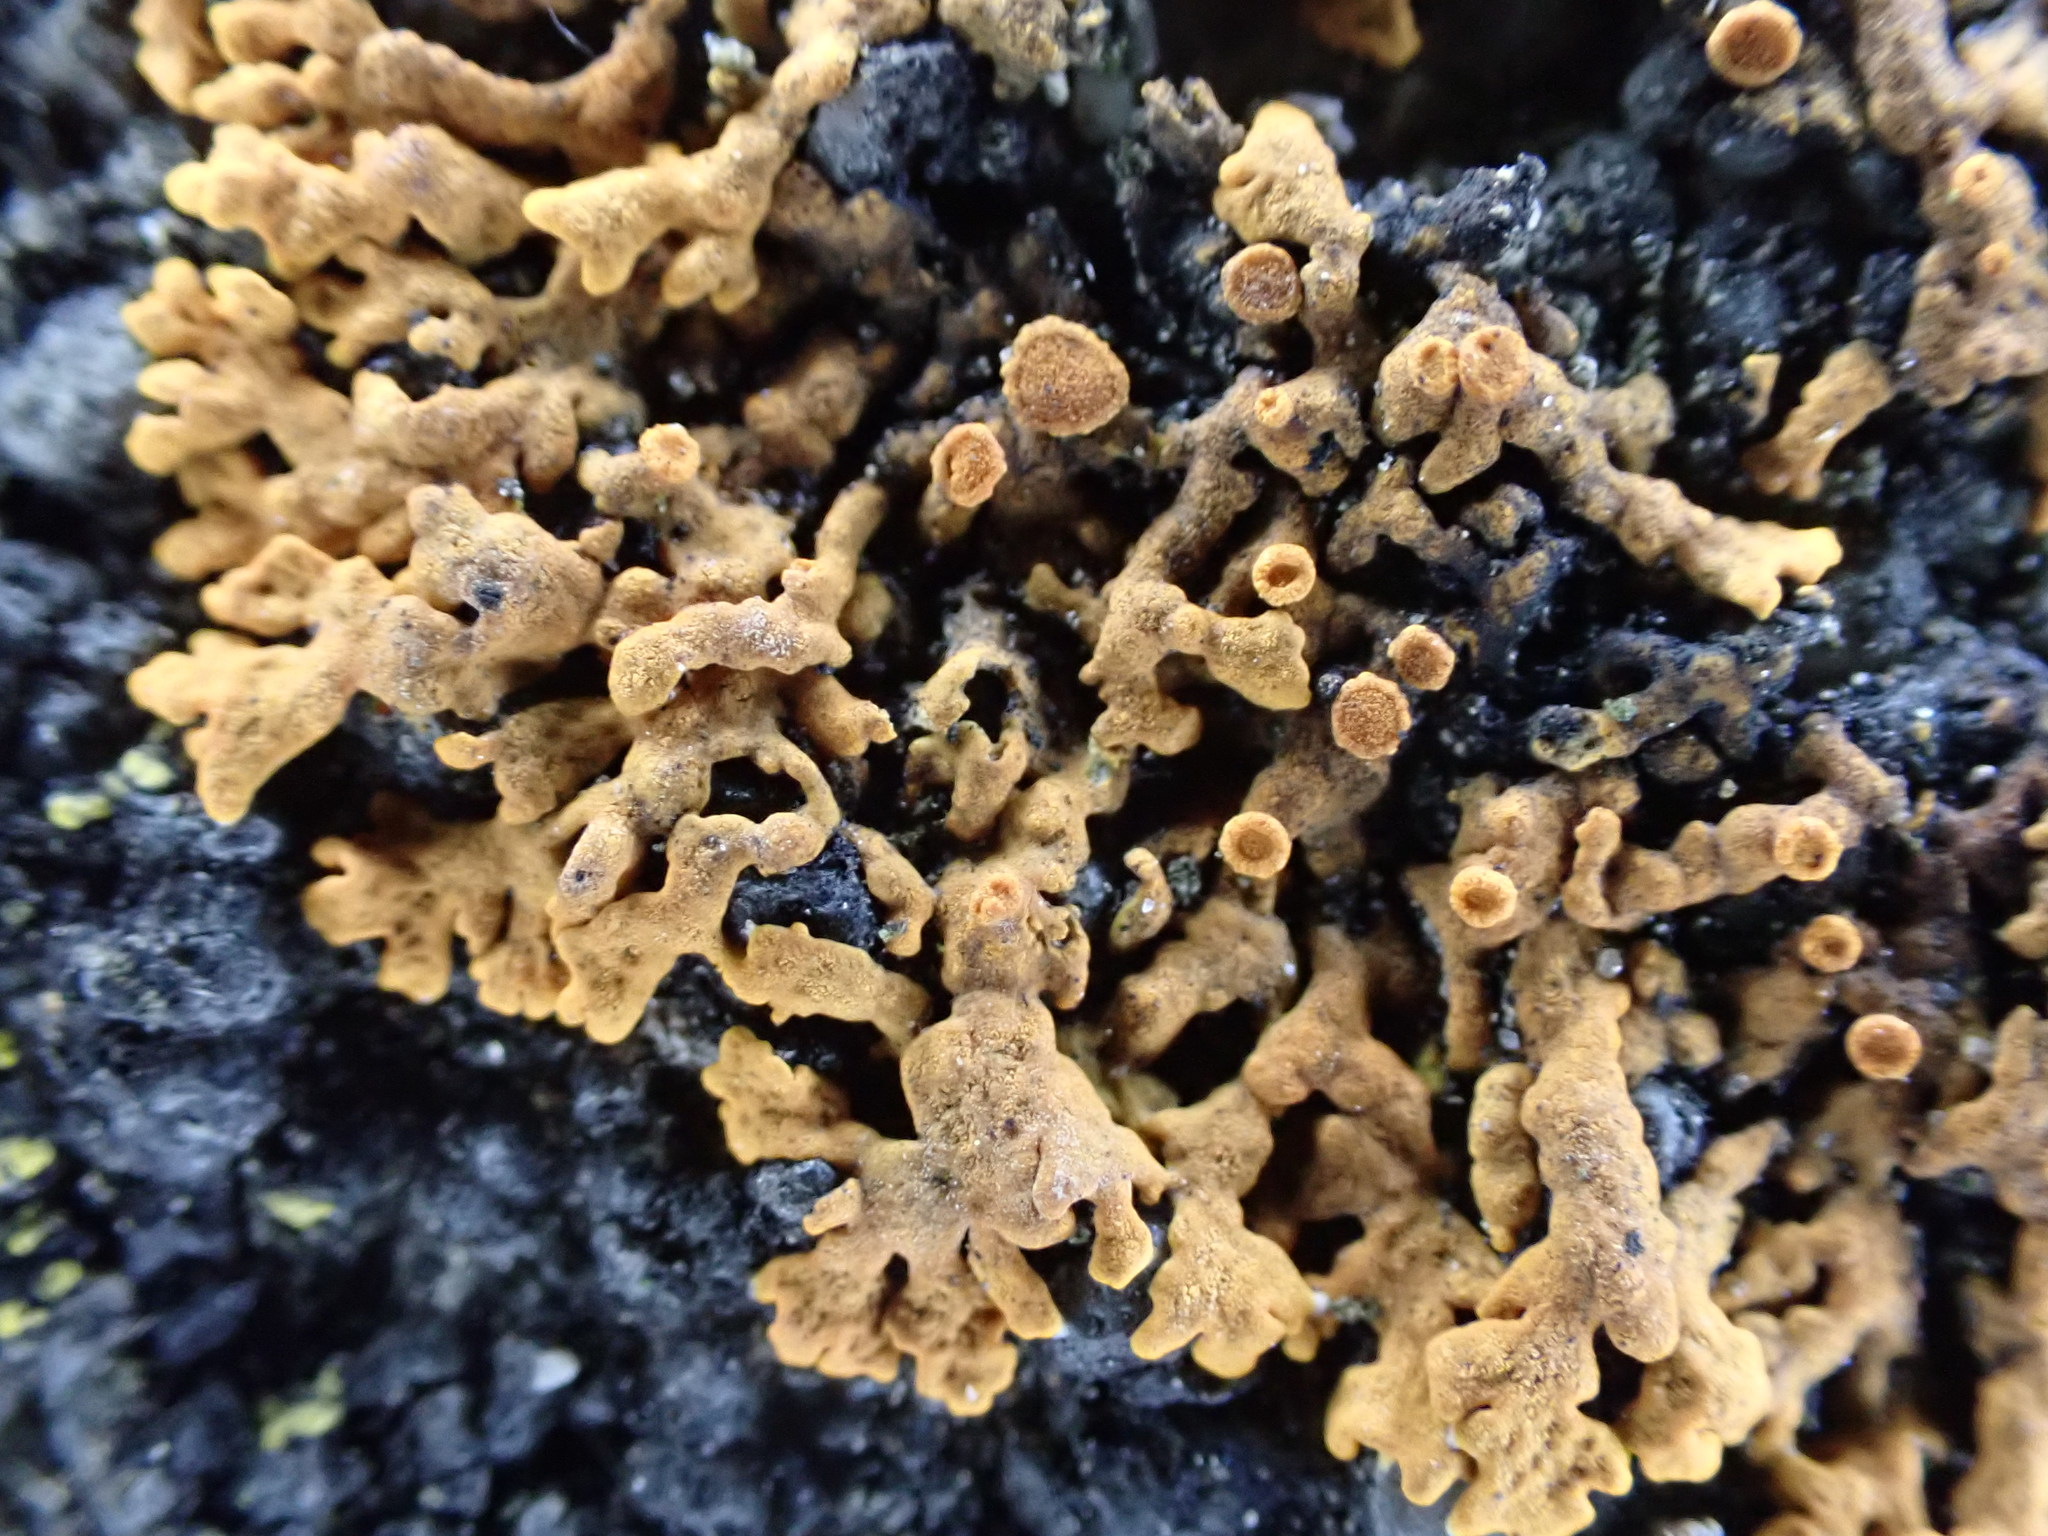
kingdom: Fungi
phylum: Ascomycota
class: Lecanoromycetes
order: Teloschistales
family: Teloschistaceae
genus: Xanthoria
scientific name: Xanthoria elegans
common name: Elegant sunburst lichen
